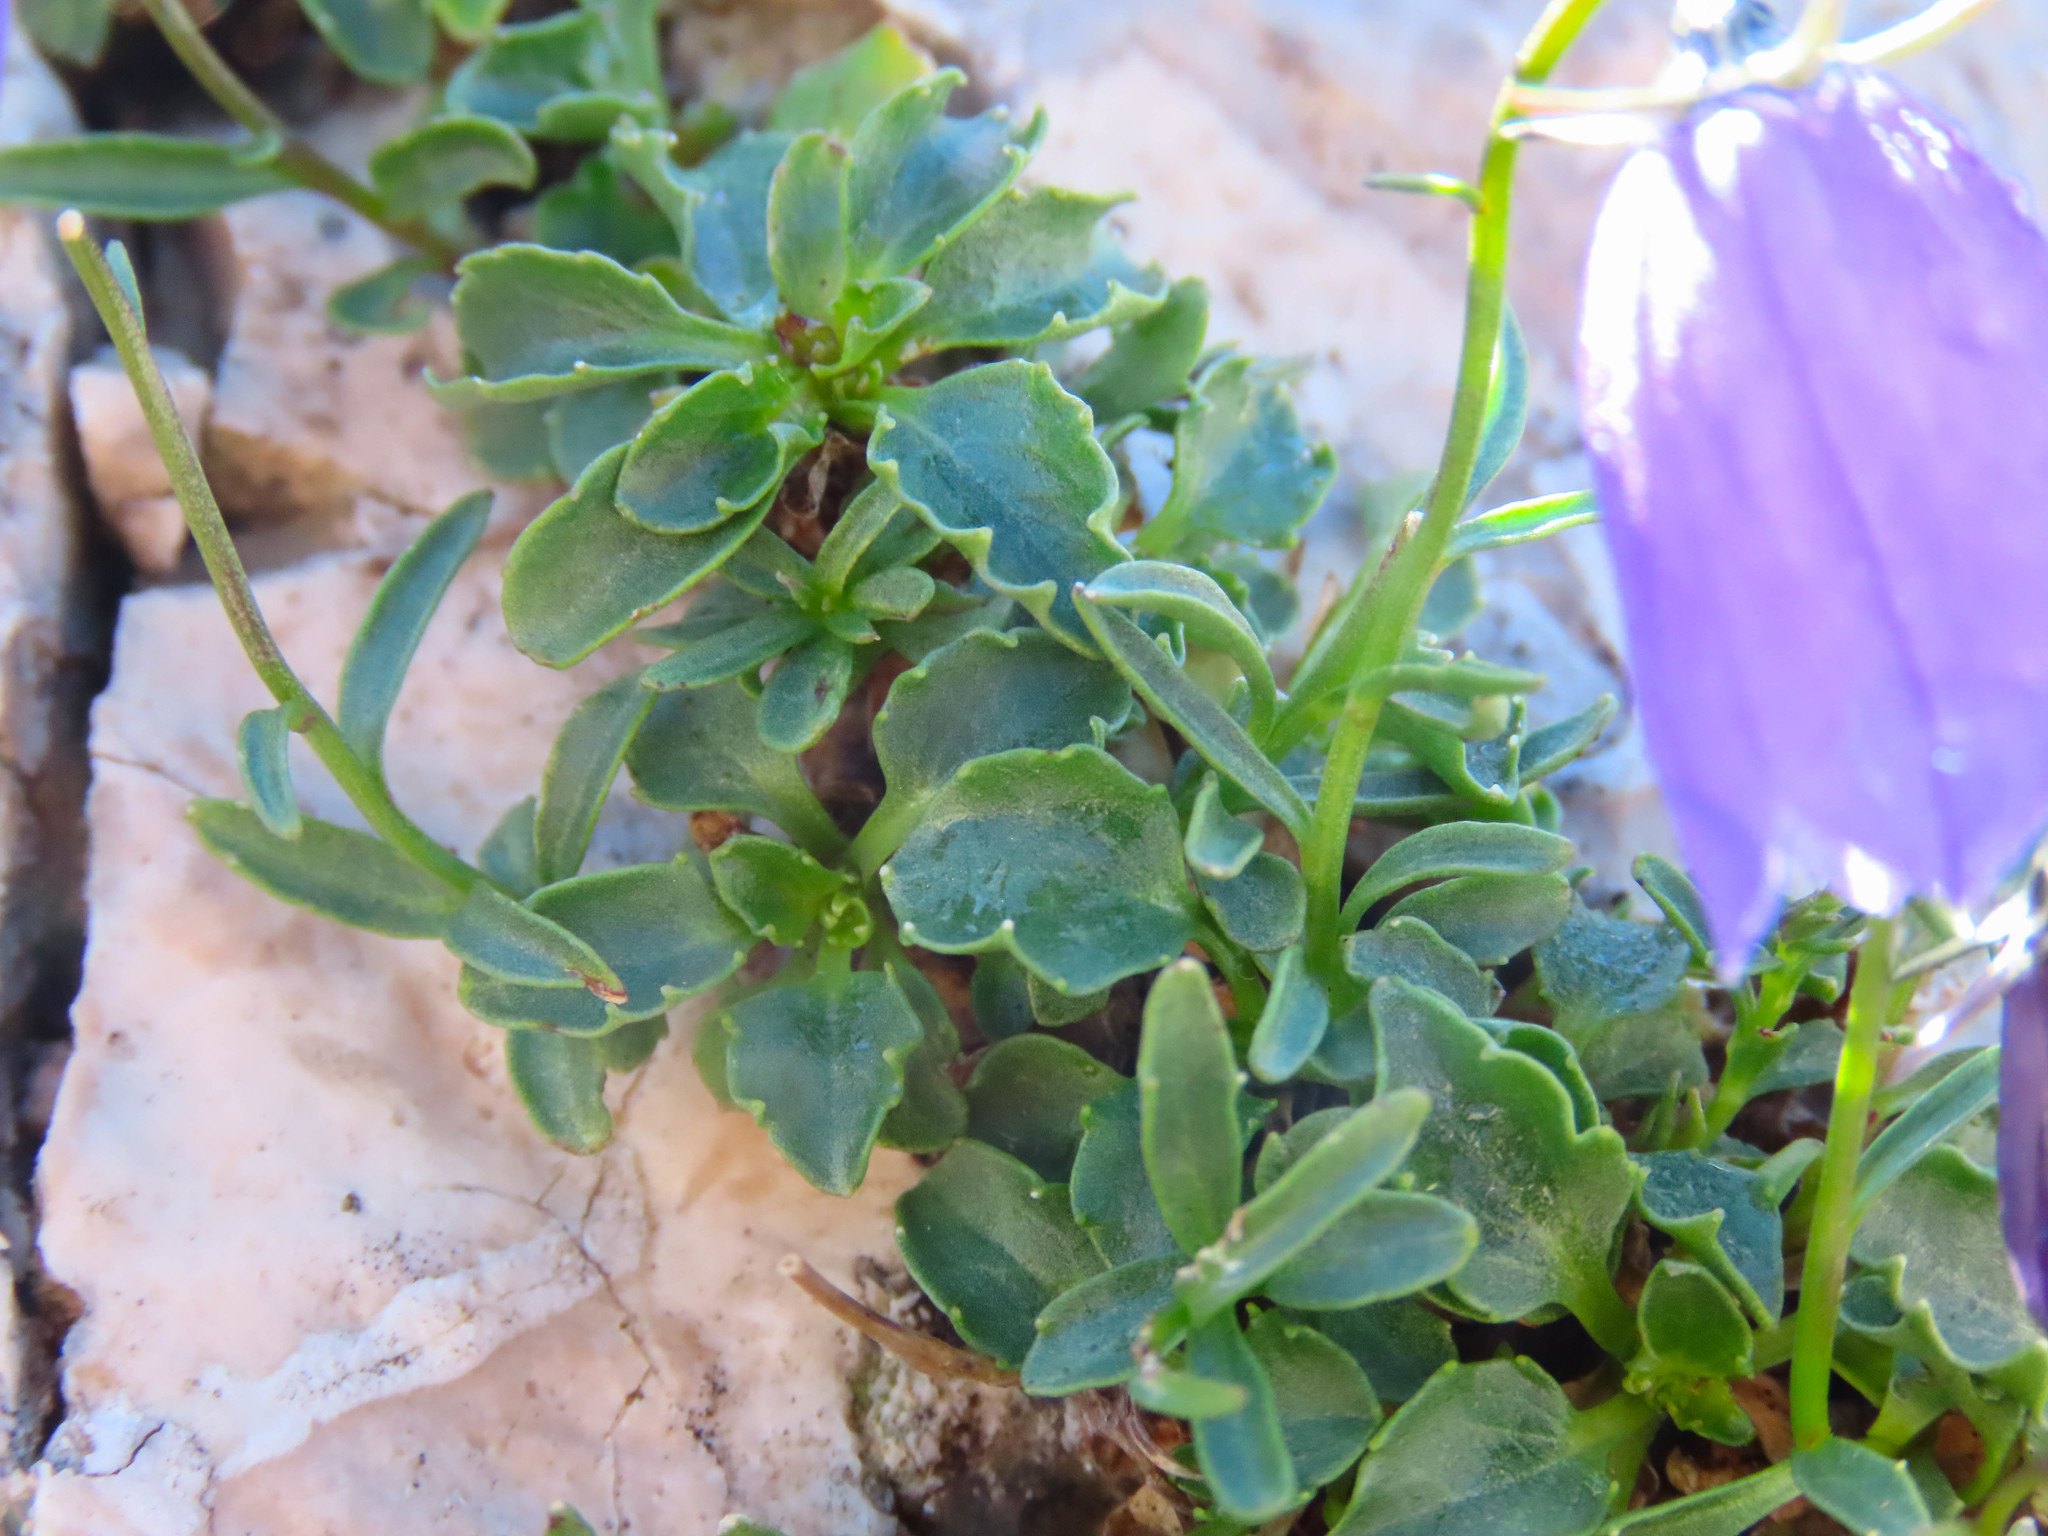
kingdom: Plantae
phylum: Tracheophyta
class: Magnoliopsida
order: Asterales
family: Campanulaceae
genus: Campanula
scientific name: Campanula cochleariifolia
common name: Fairies'-thimbles
